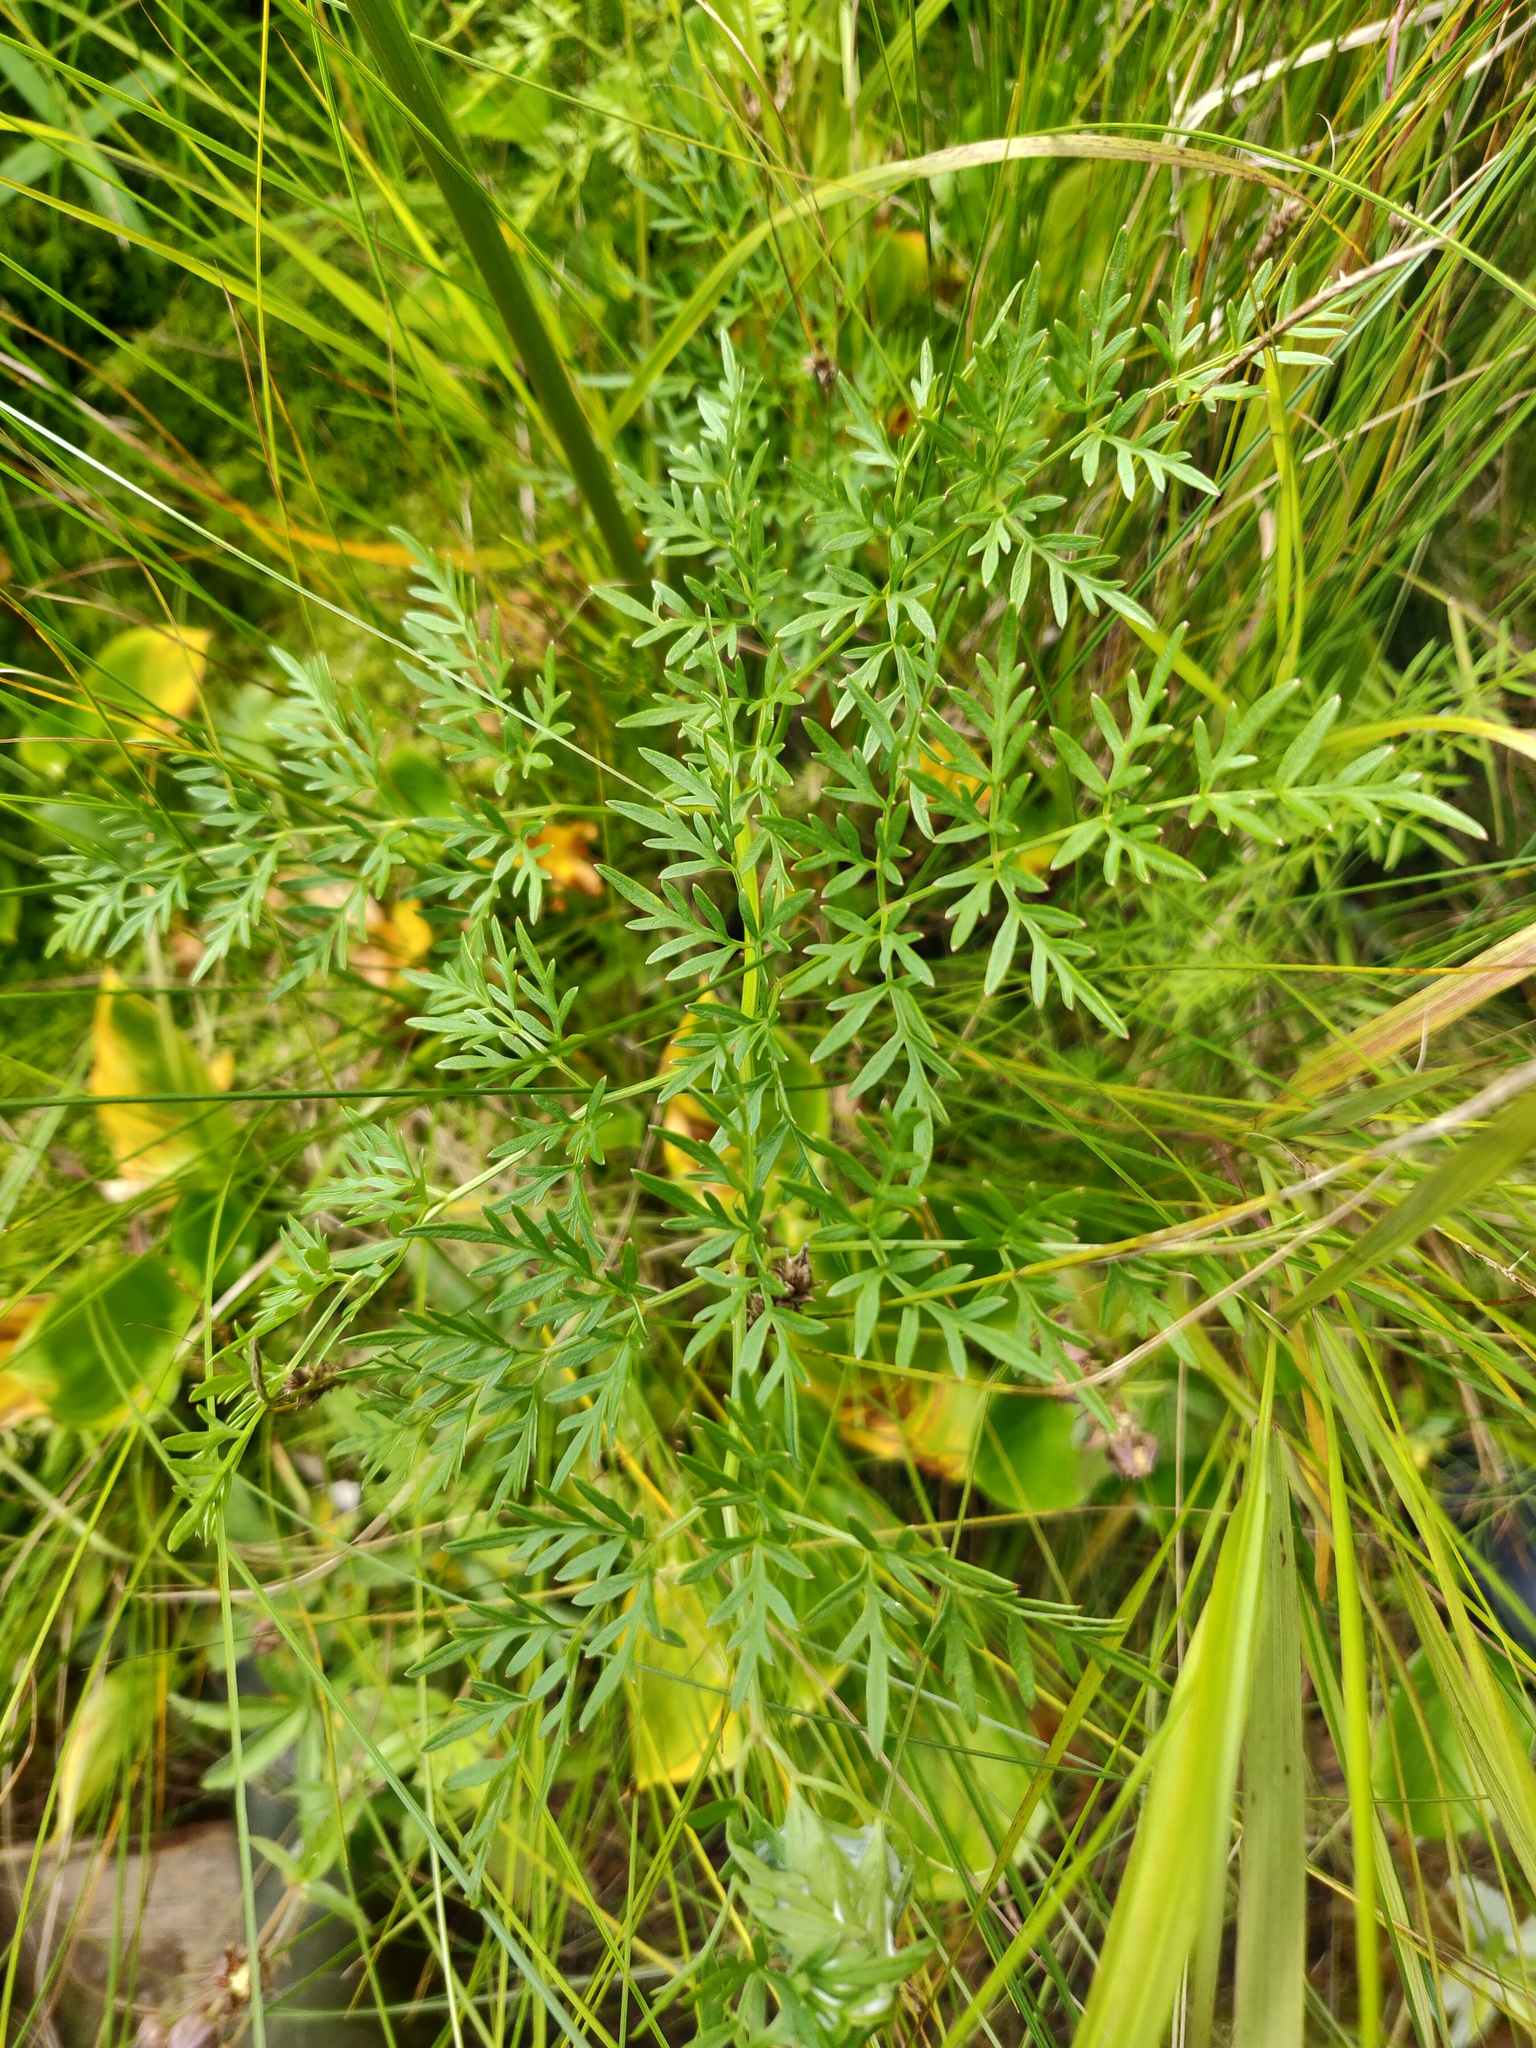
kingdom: Plantae
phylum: Tracheophyta
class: Magnoliopsida
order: Apiales
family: Apiaceae
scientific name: Apiaceae
